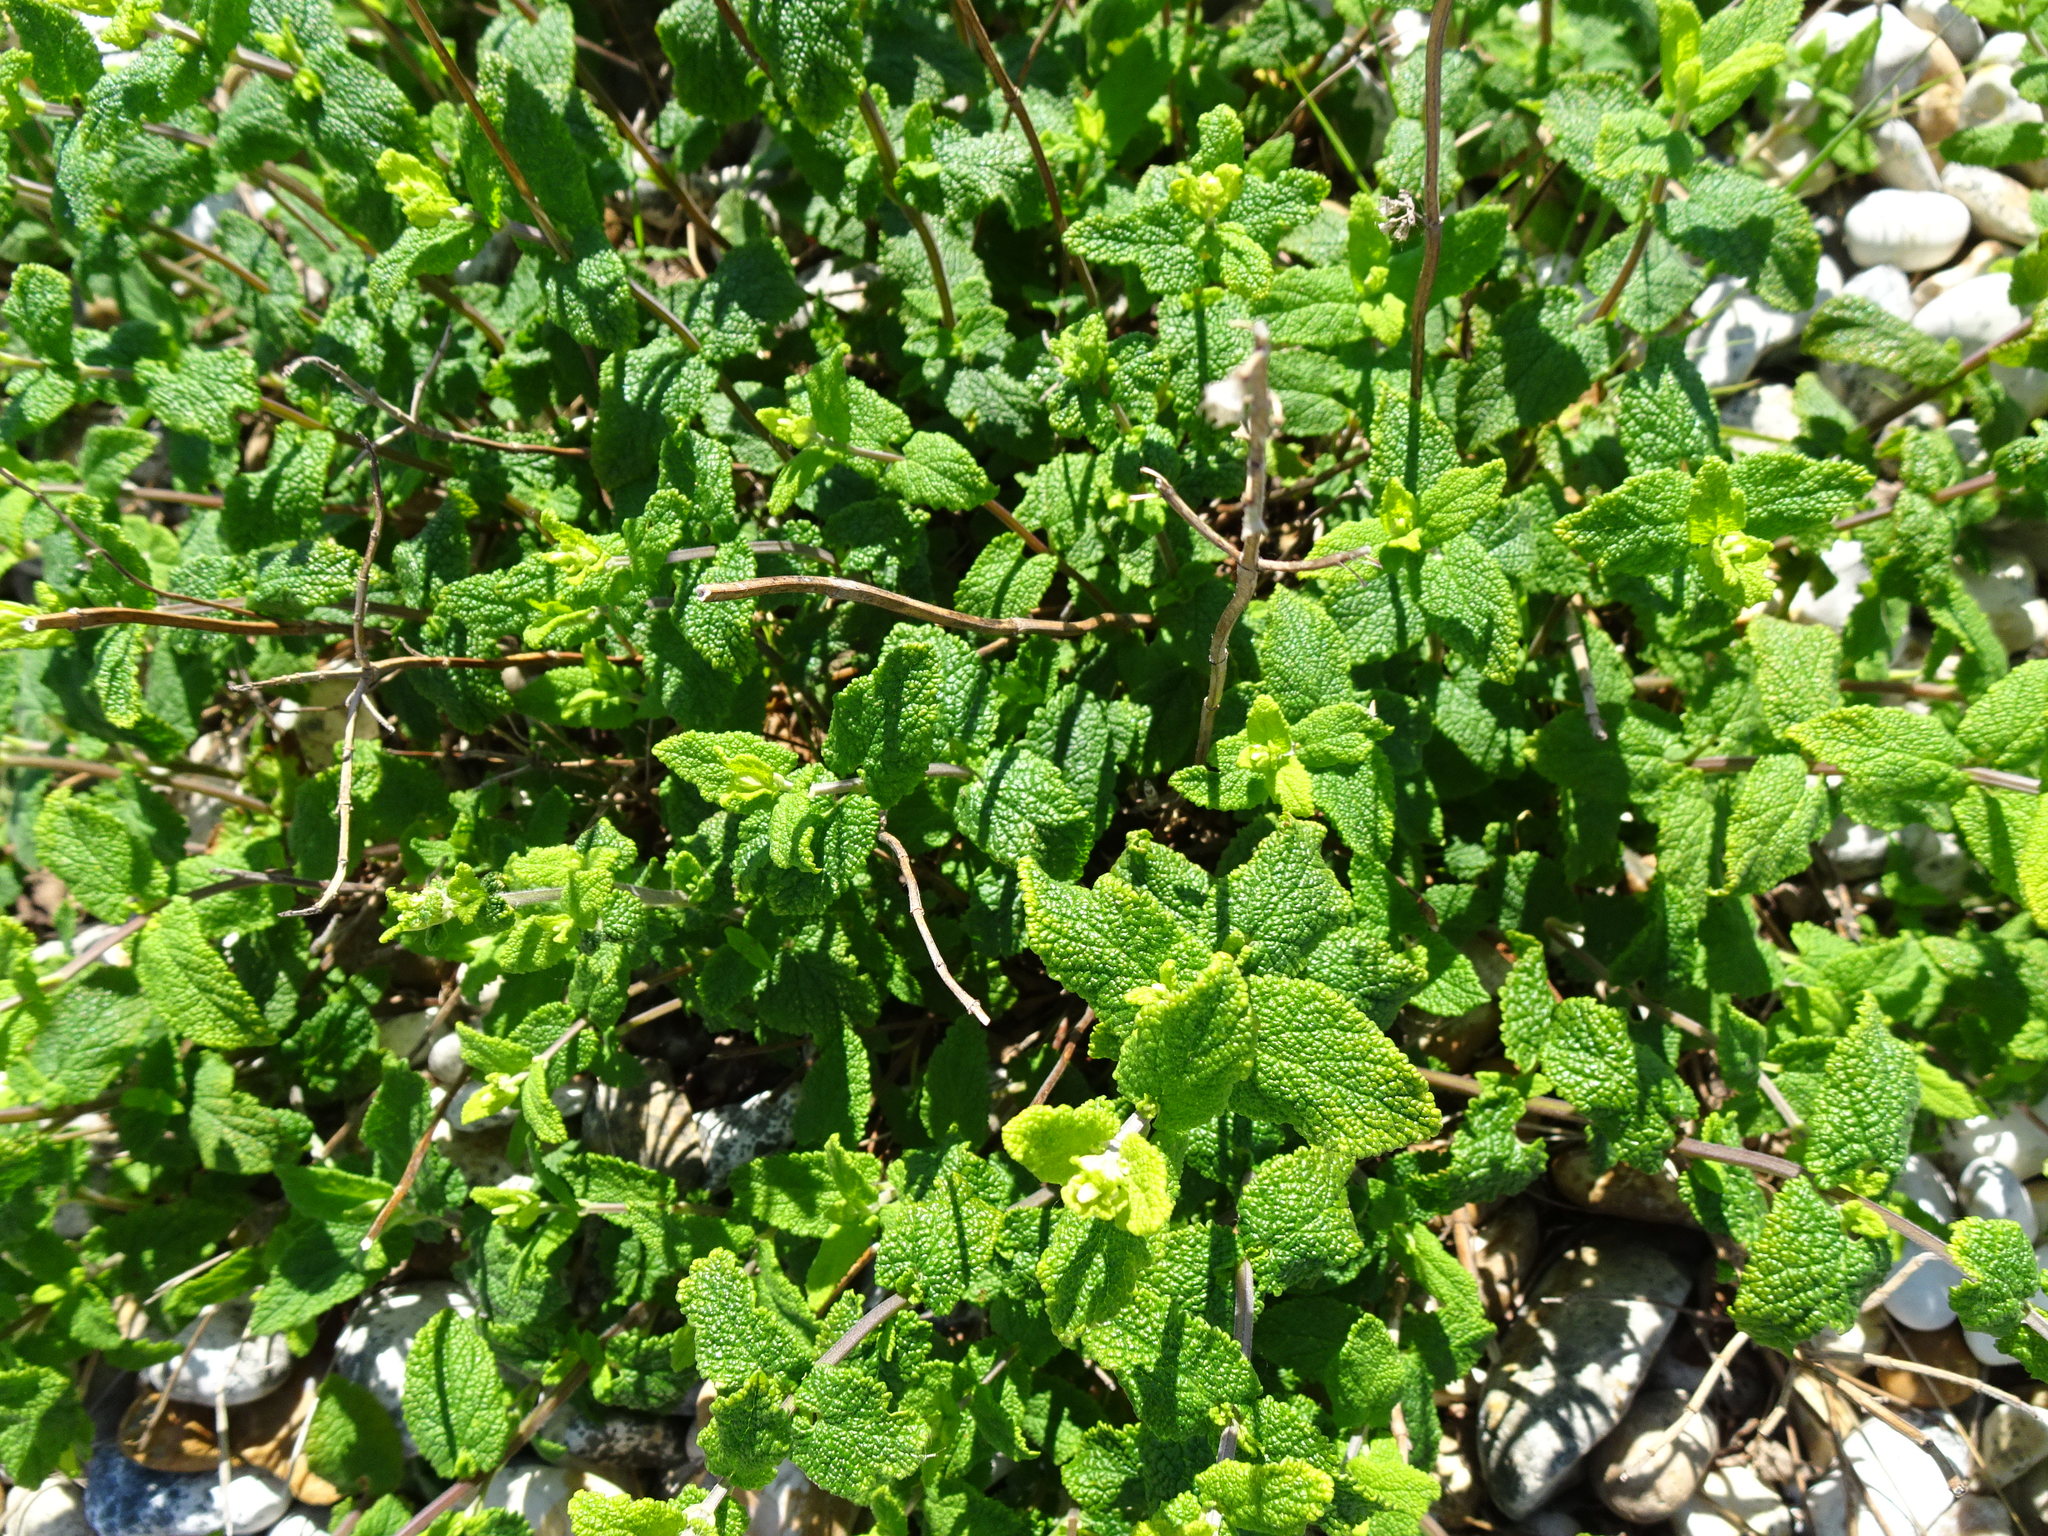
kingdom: Plantae
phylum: Tracheophyta
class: Magnoliopsida
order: Lamiales
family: Lamiaceae
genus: Teucrium
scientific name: Teucrium scorodonia
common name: Woodland germander
